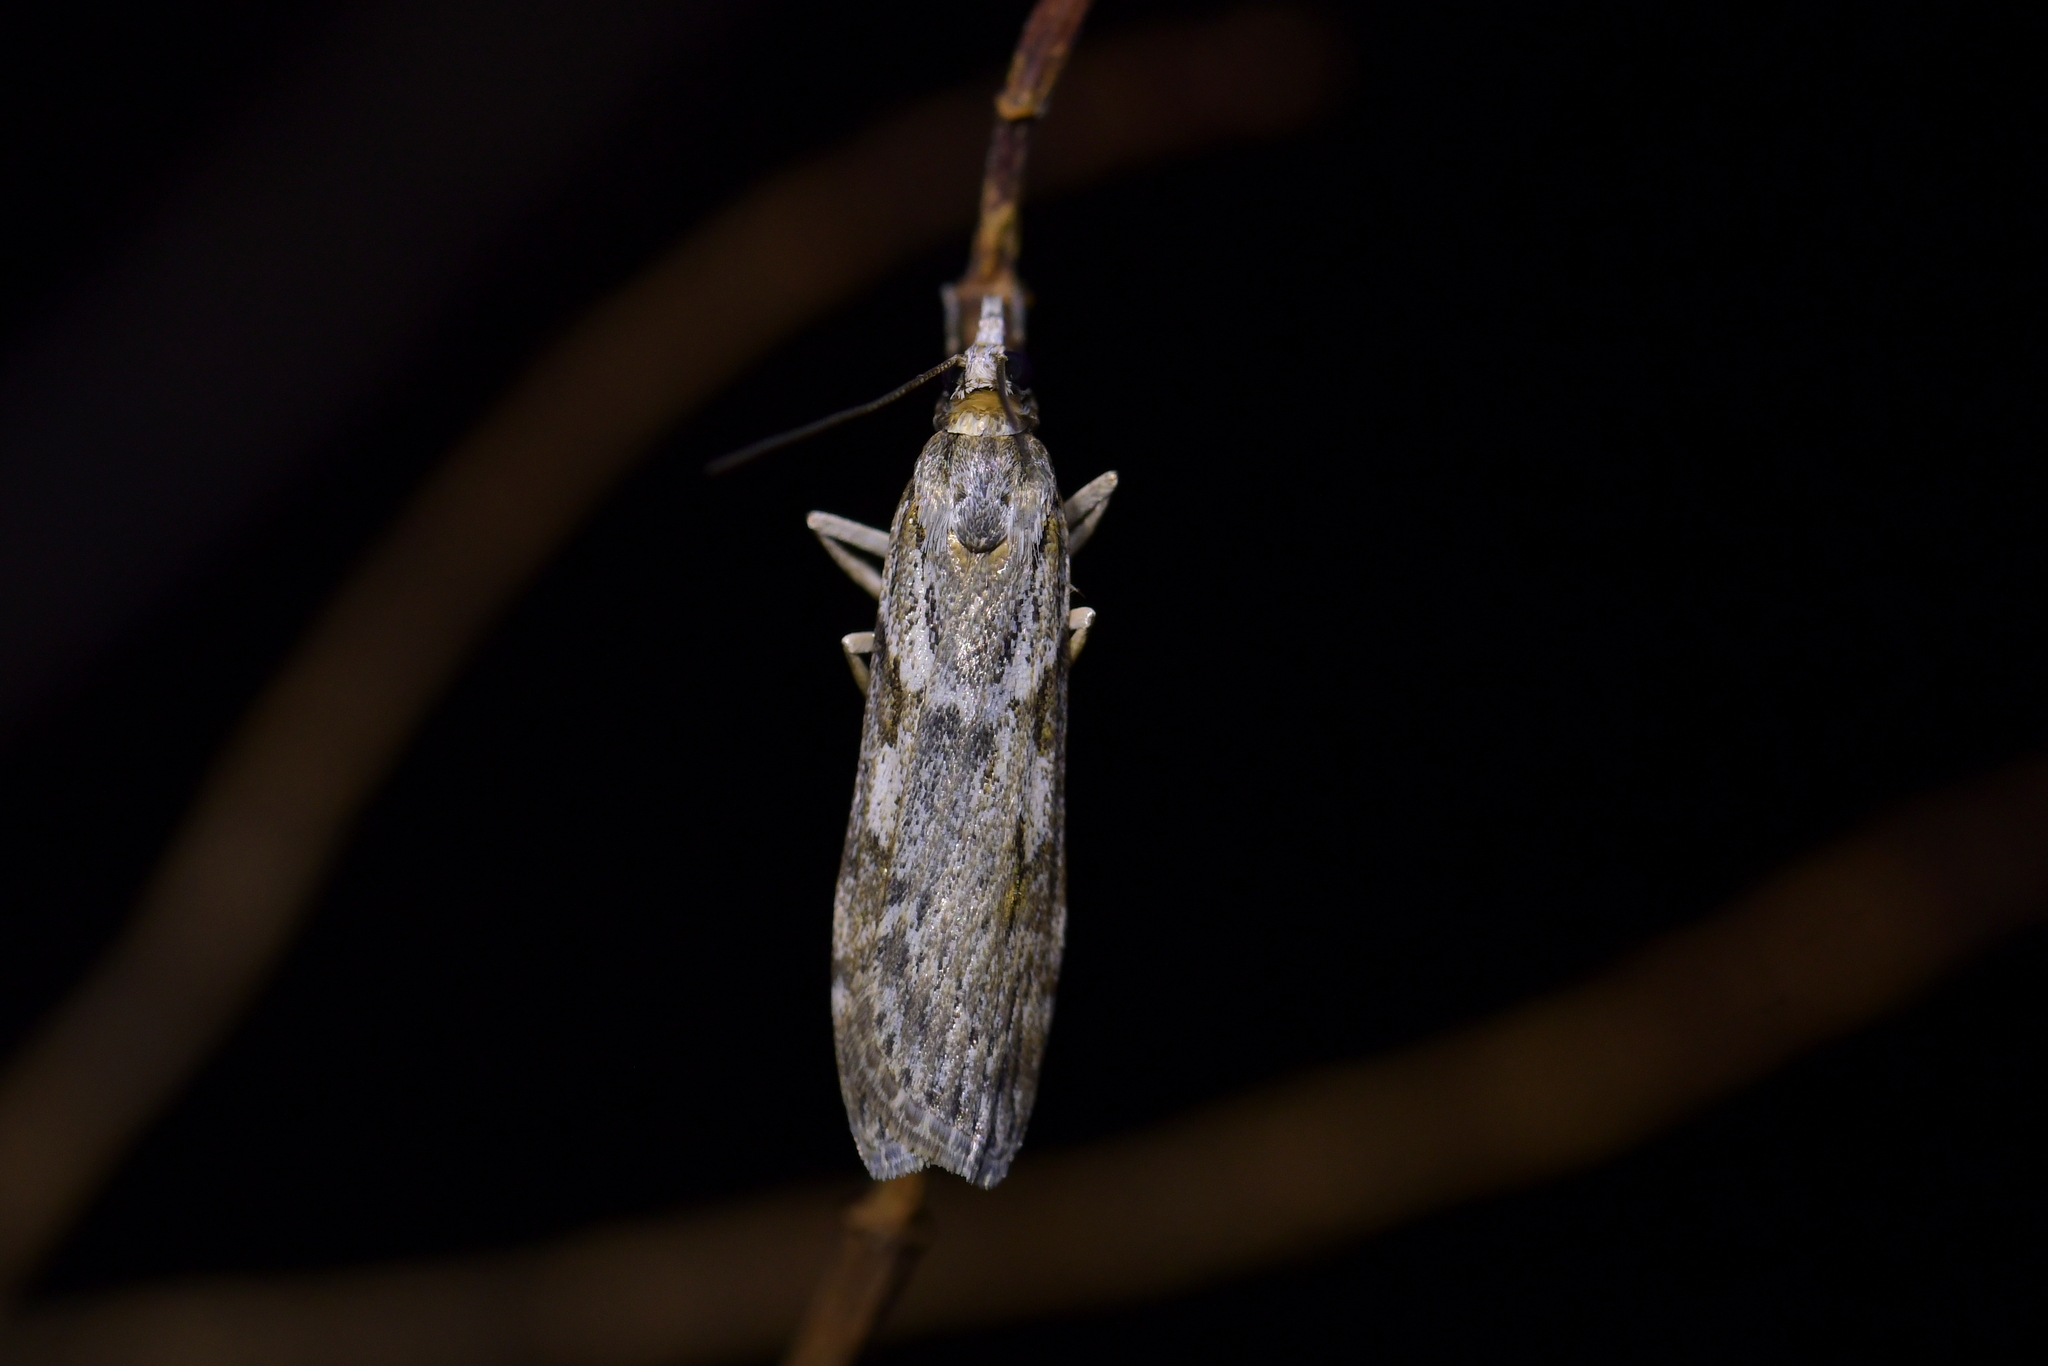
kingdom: Animalia
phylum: Arthropoda
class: Insecta
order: Lepidoptera
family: Crambidae
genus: Scoparia
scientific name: Scoparia halopis
